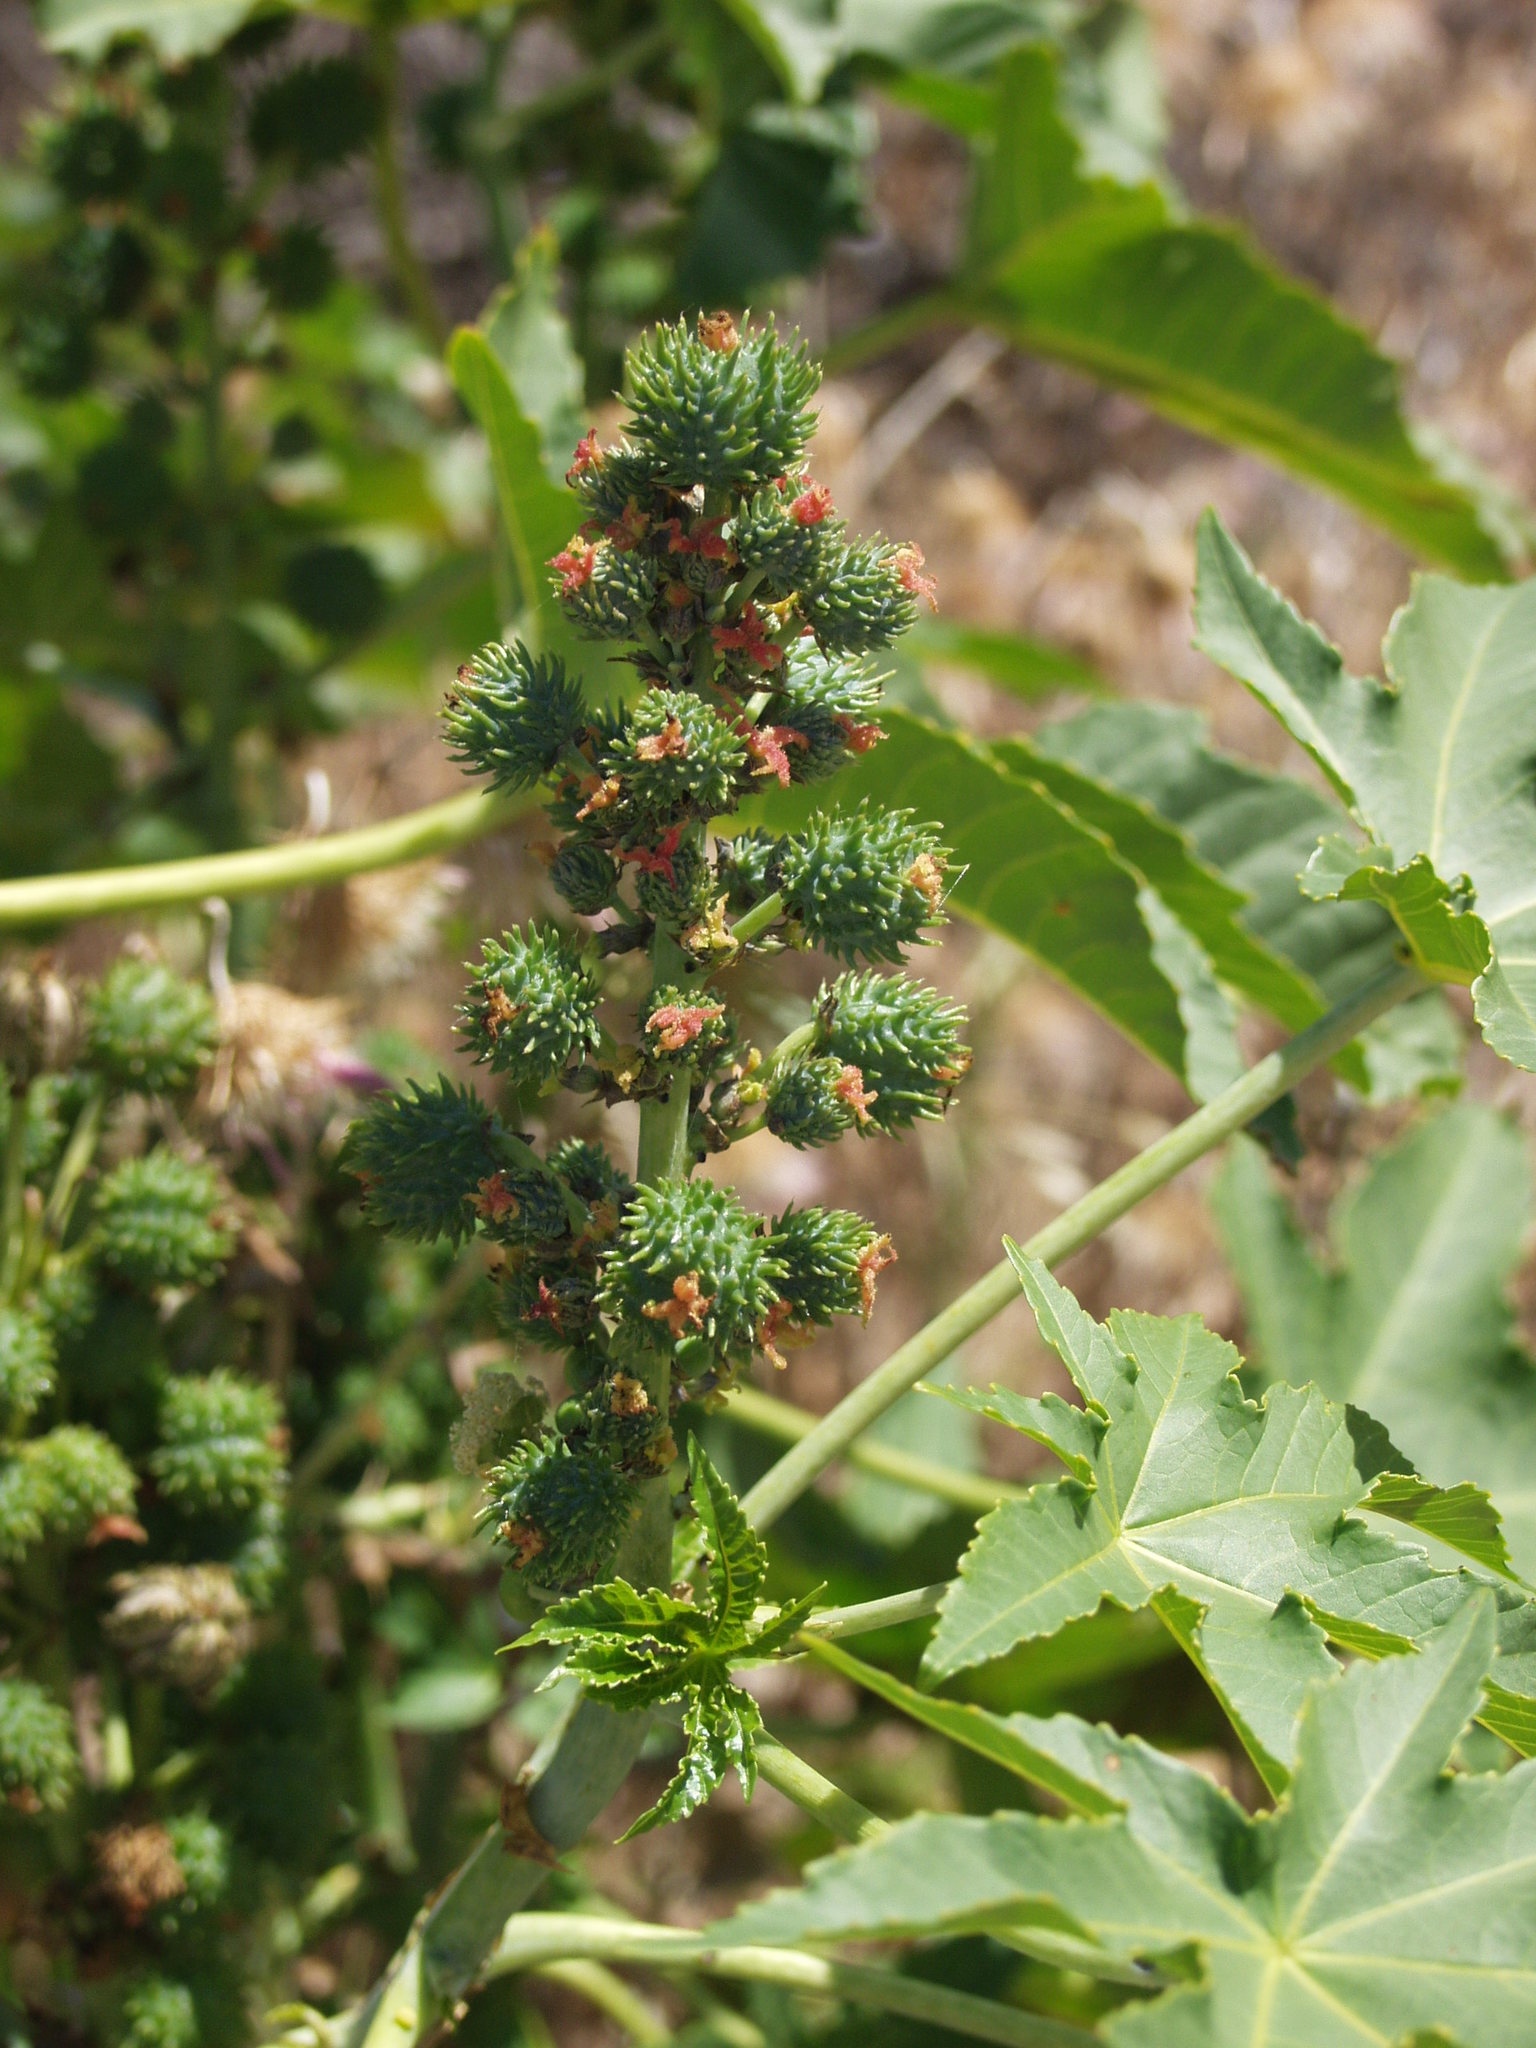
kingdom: Plantae
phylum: Tracheophyta
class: Magnoliopsida
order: Malpighiales
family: Euphorbiaceae
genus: Ricinus
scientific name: Ricinus communis
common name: Castor-oil-plant
